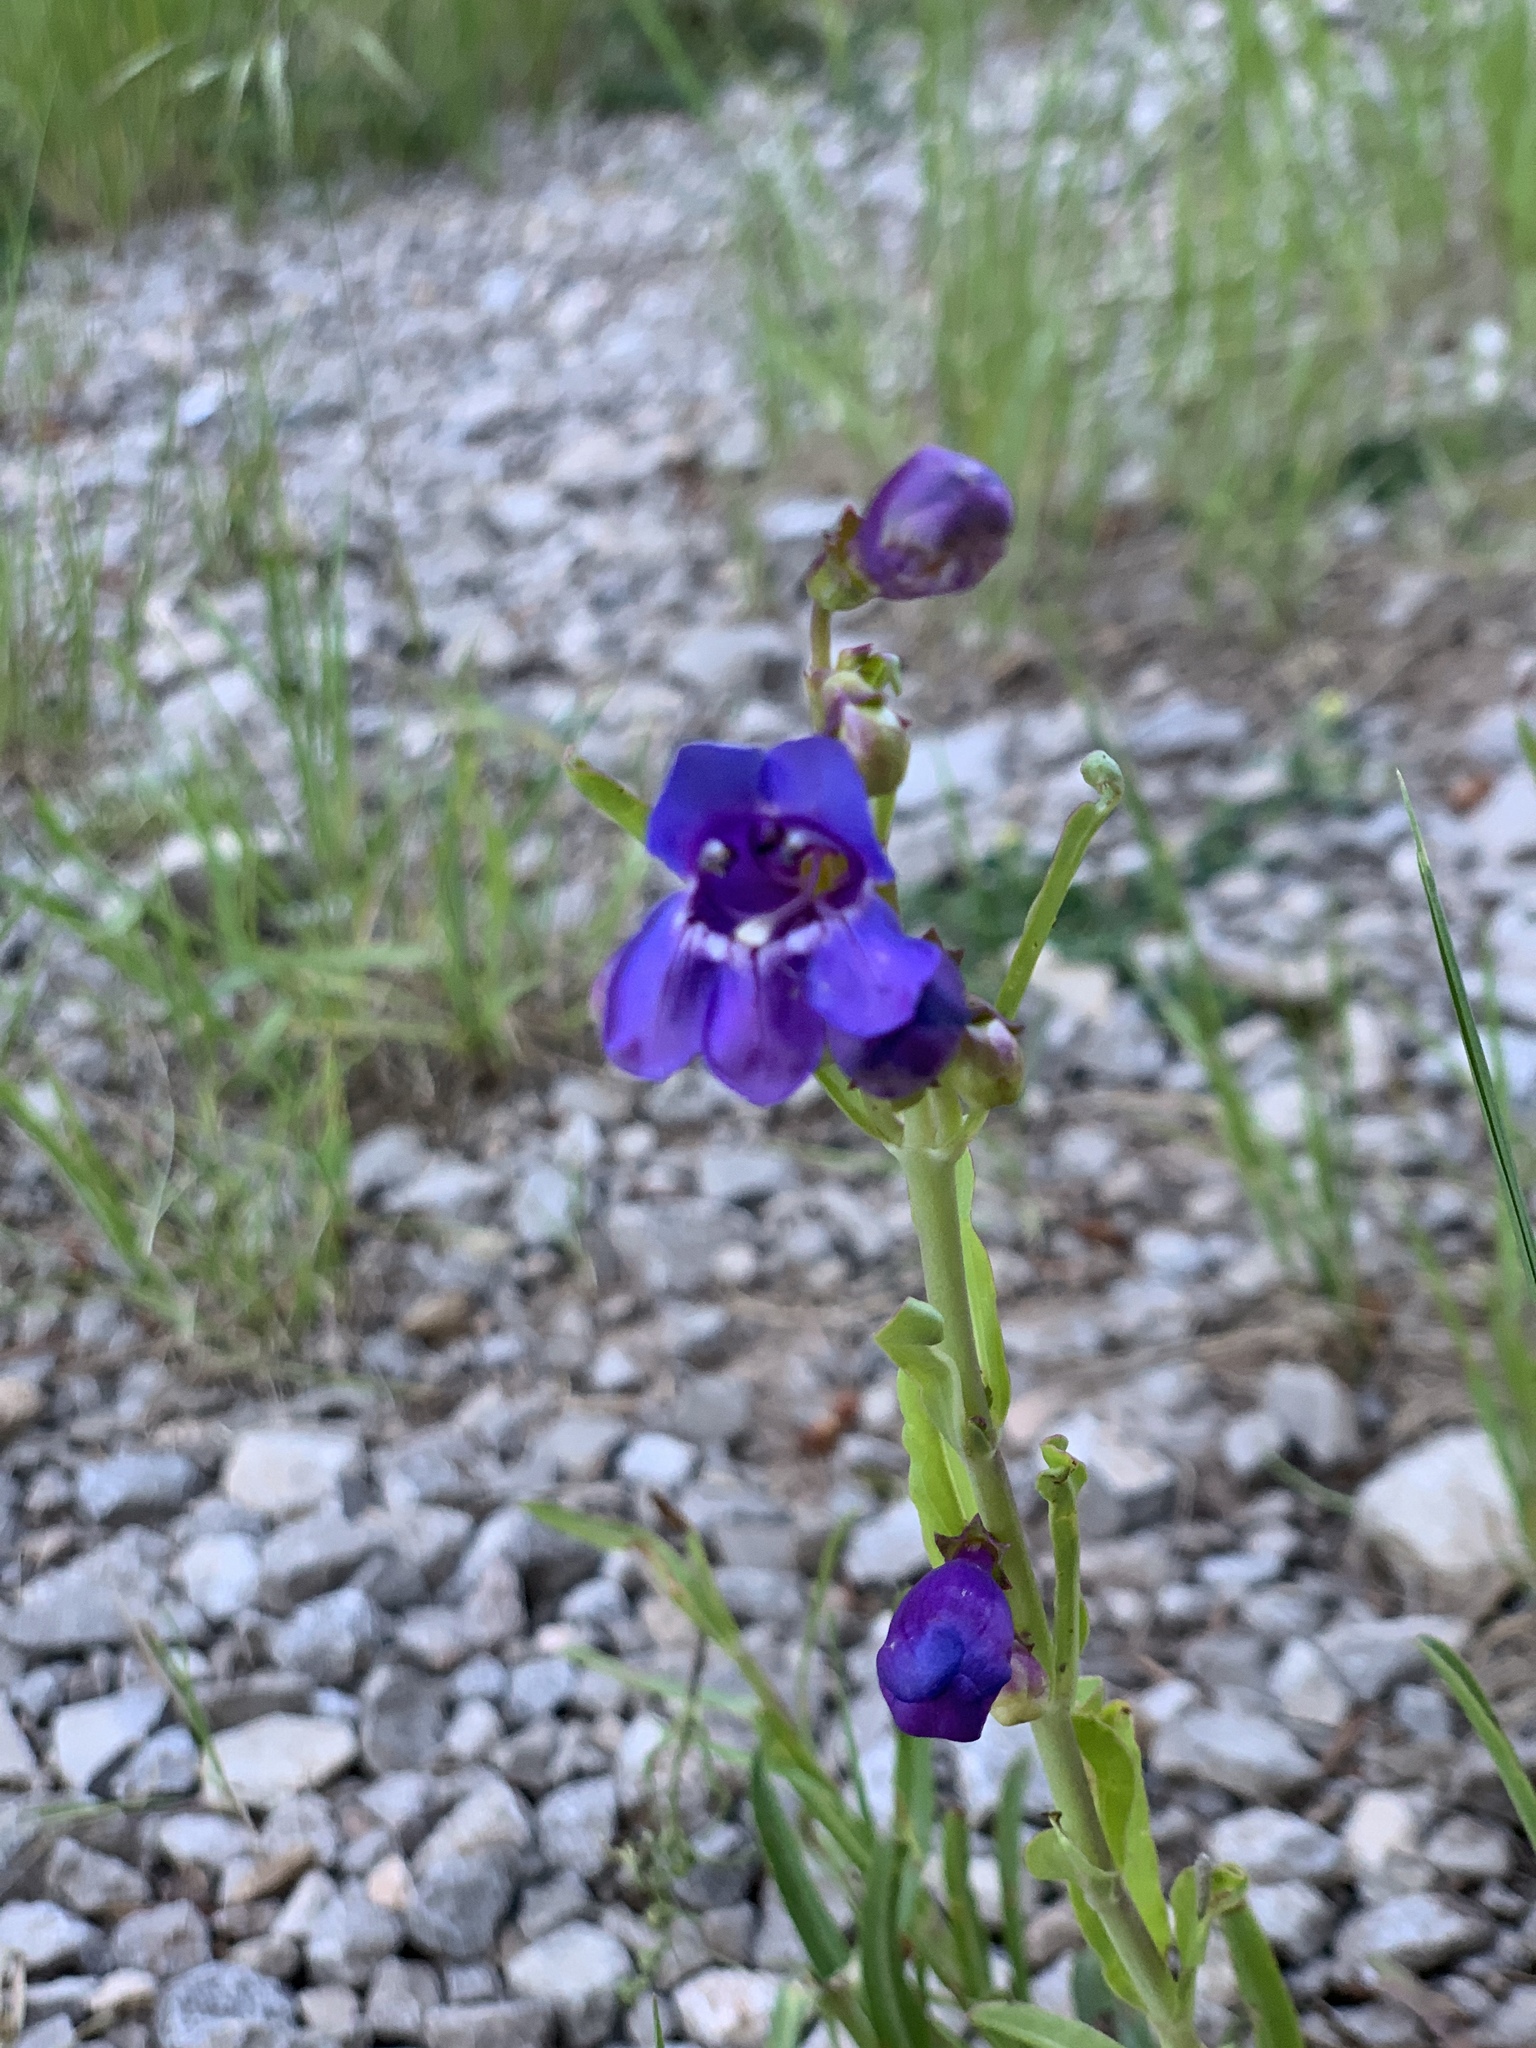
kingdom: Plantae
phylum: Tracheophyta
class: Magnoliopsida
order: Lamiales
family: Plantaginaceae
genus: Penstemon
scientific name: Penstemon neomexicanus
